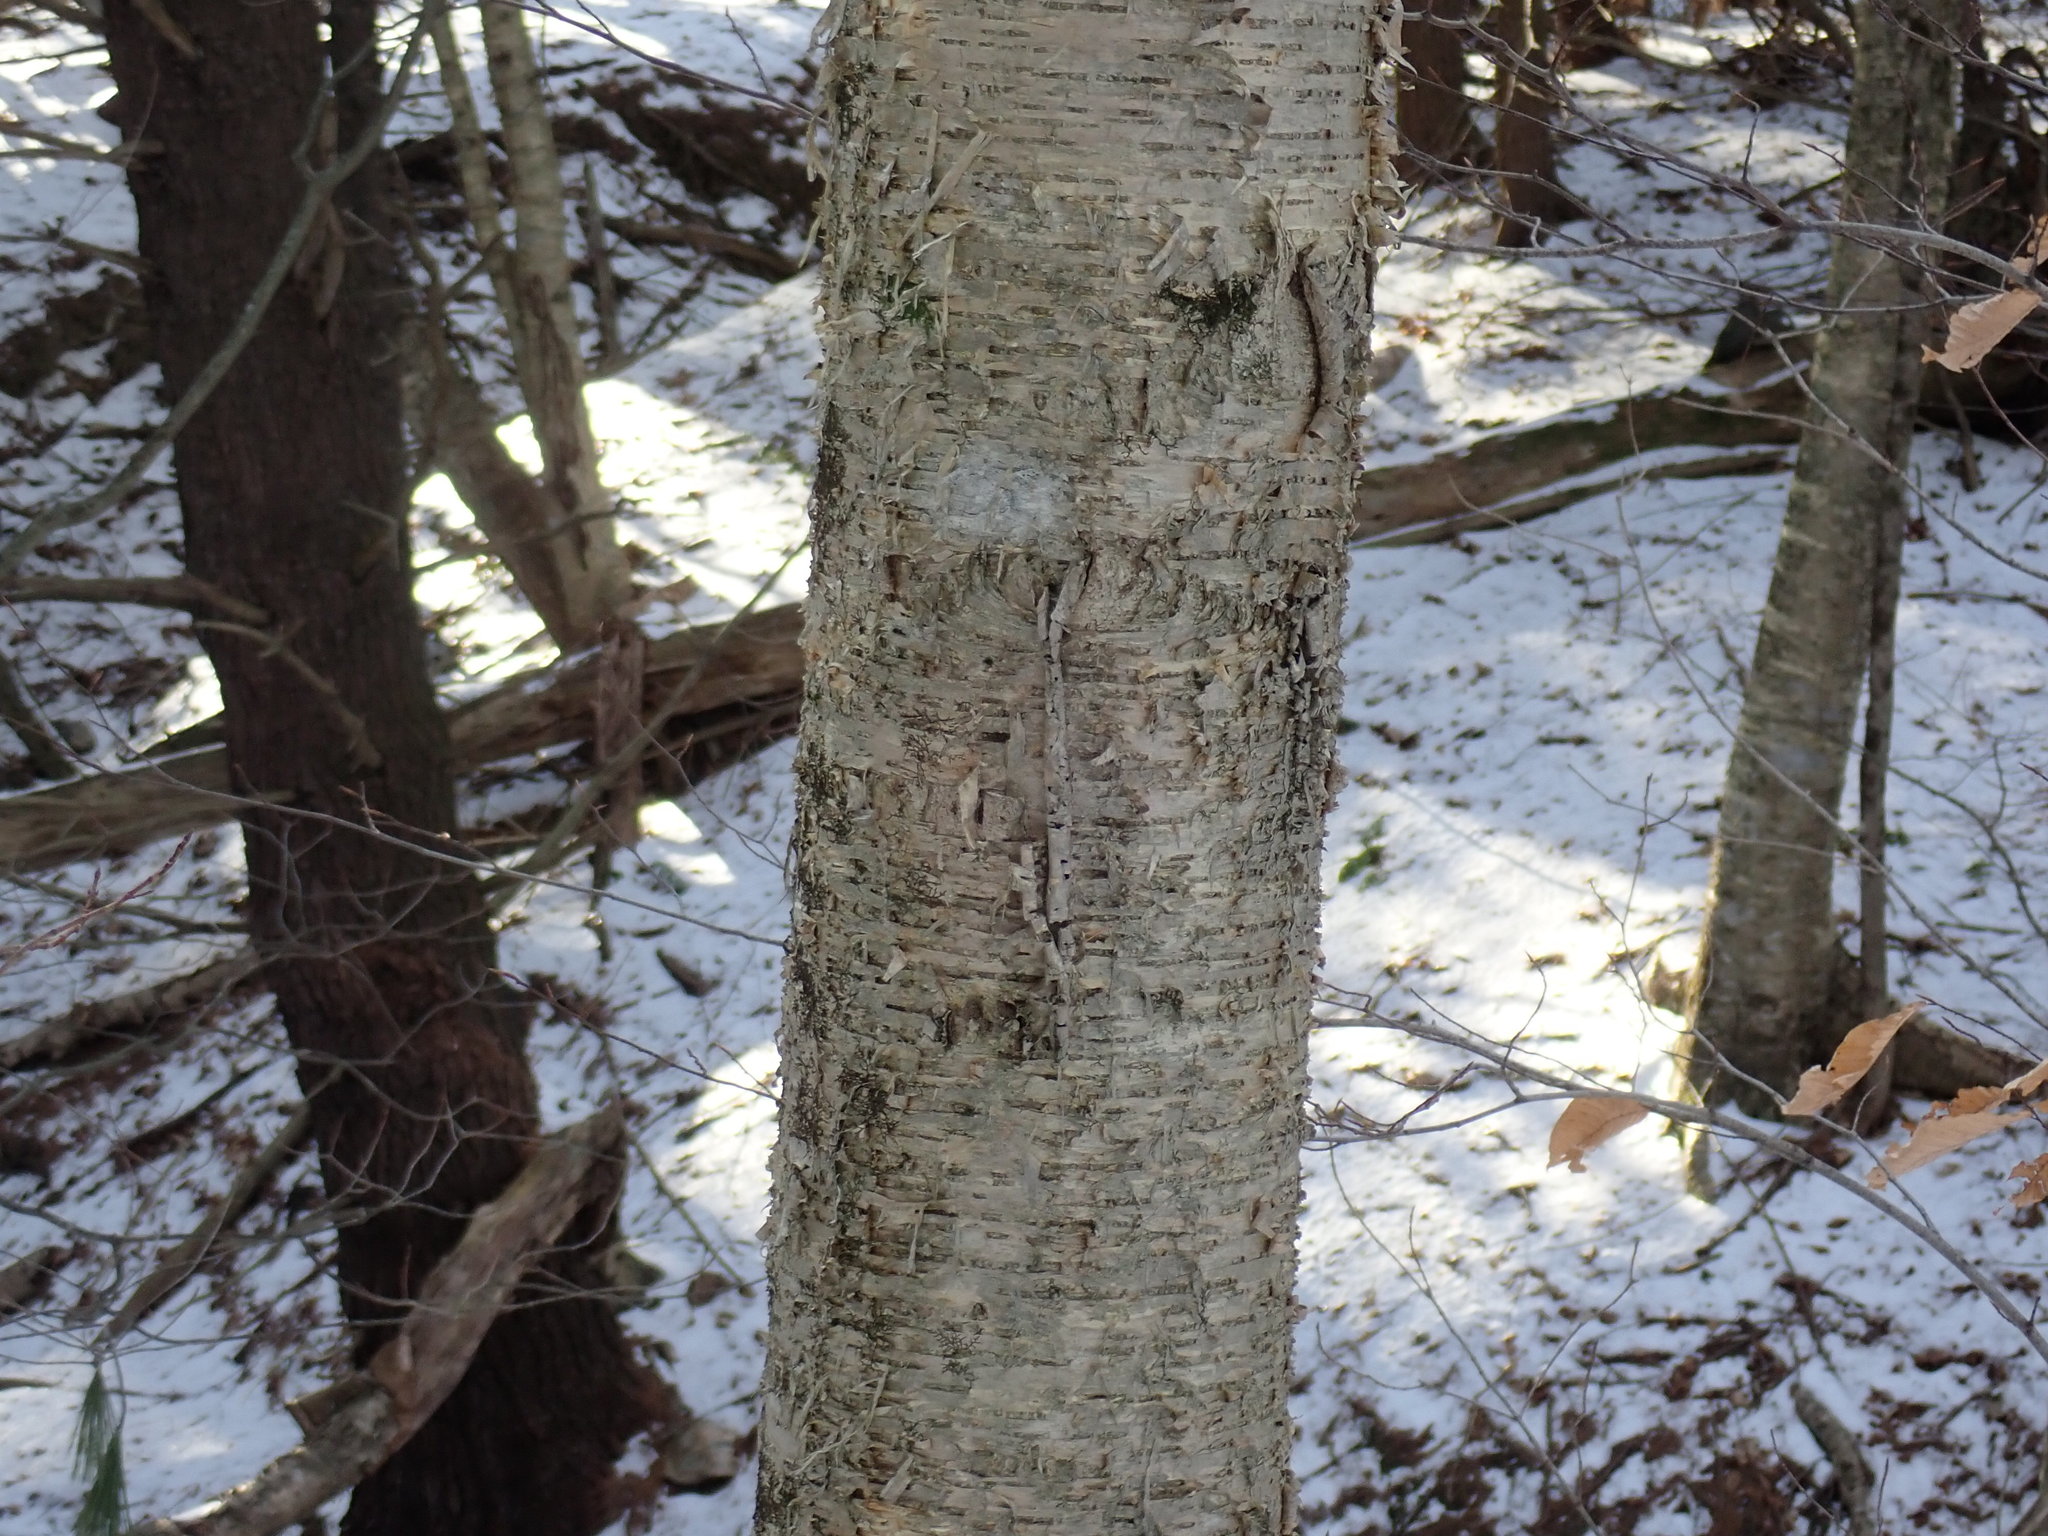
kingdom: Plantae
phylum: Tracheophyta
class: Magnoliopsida
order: Fagales
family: Betulaceae
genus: Betula
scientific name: Betula alleghaniensis
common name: Yellow birch
